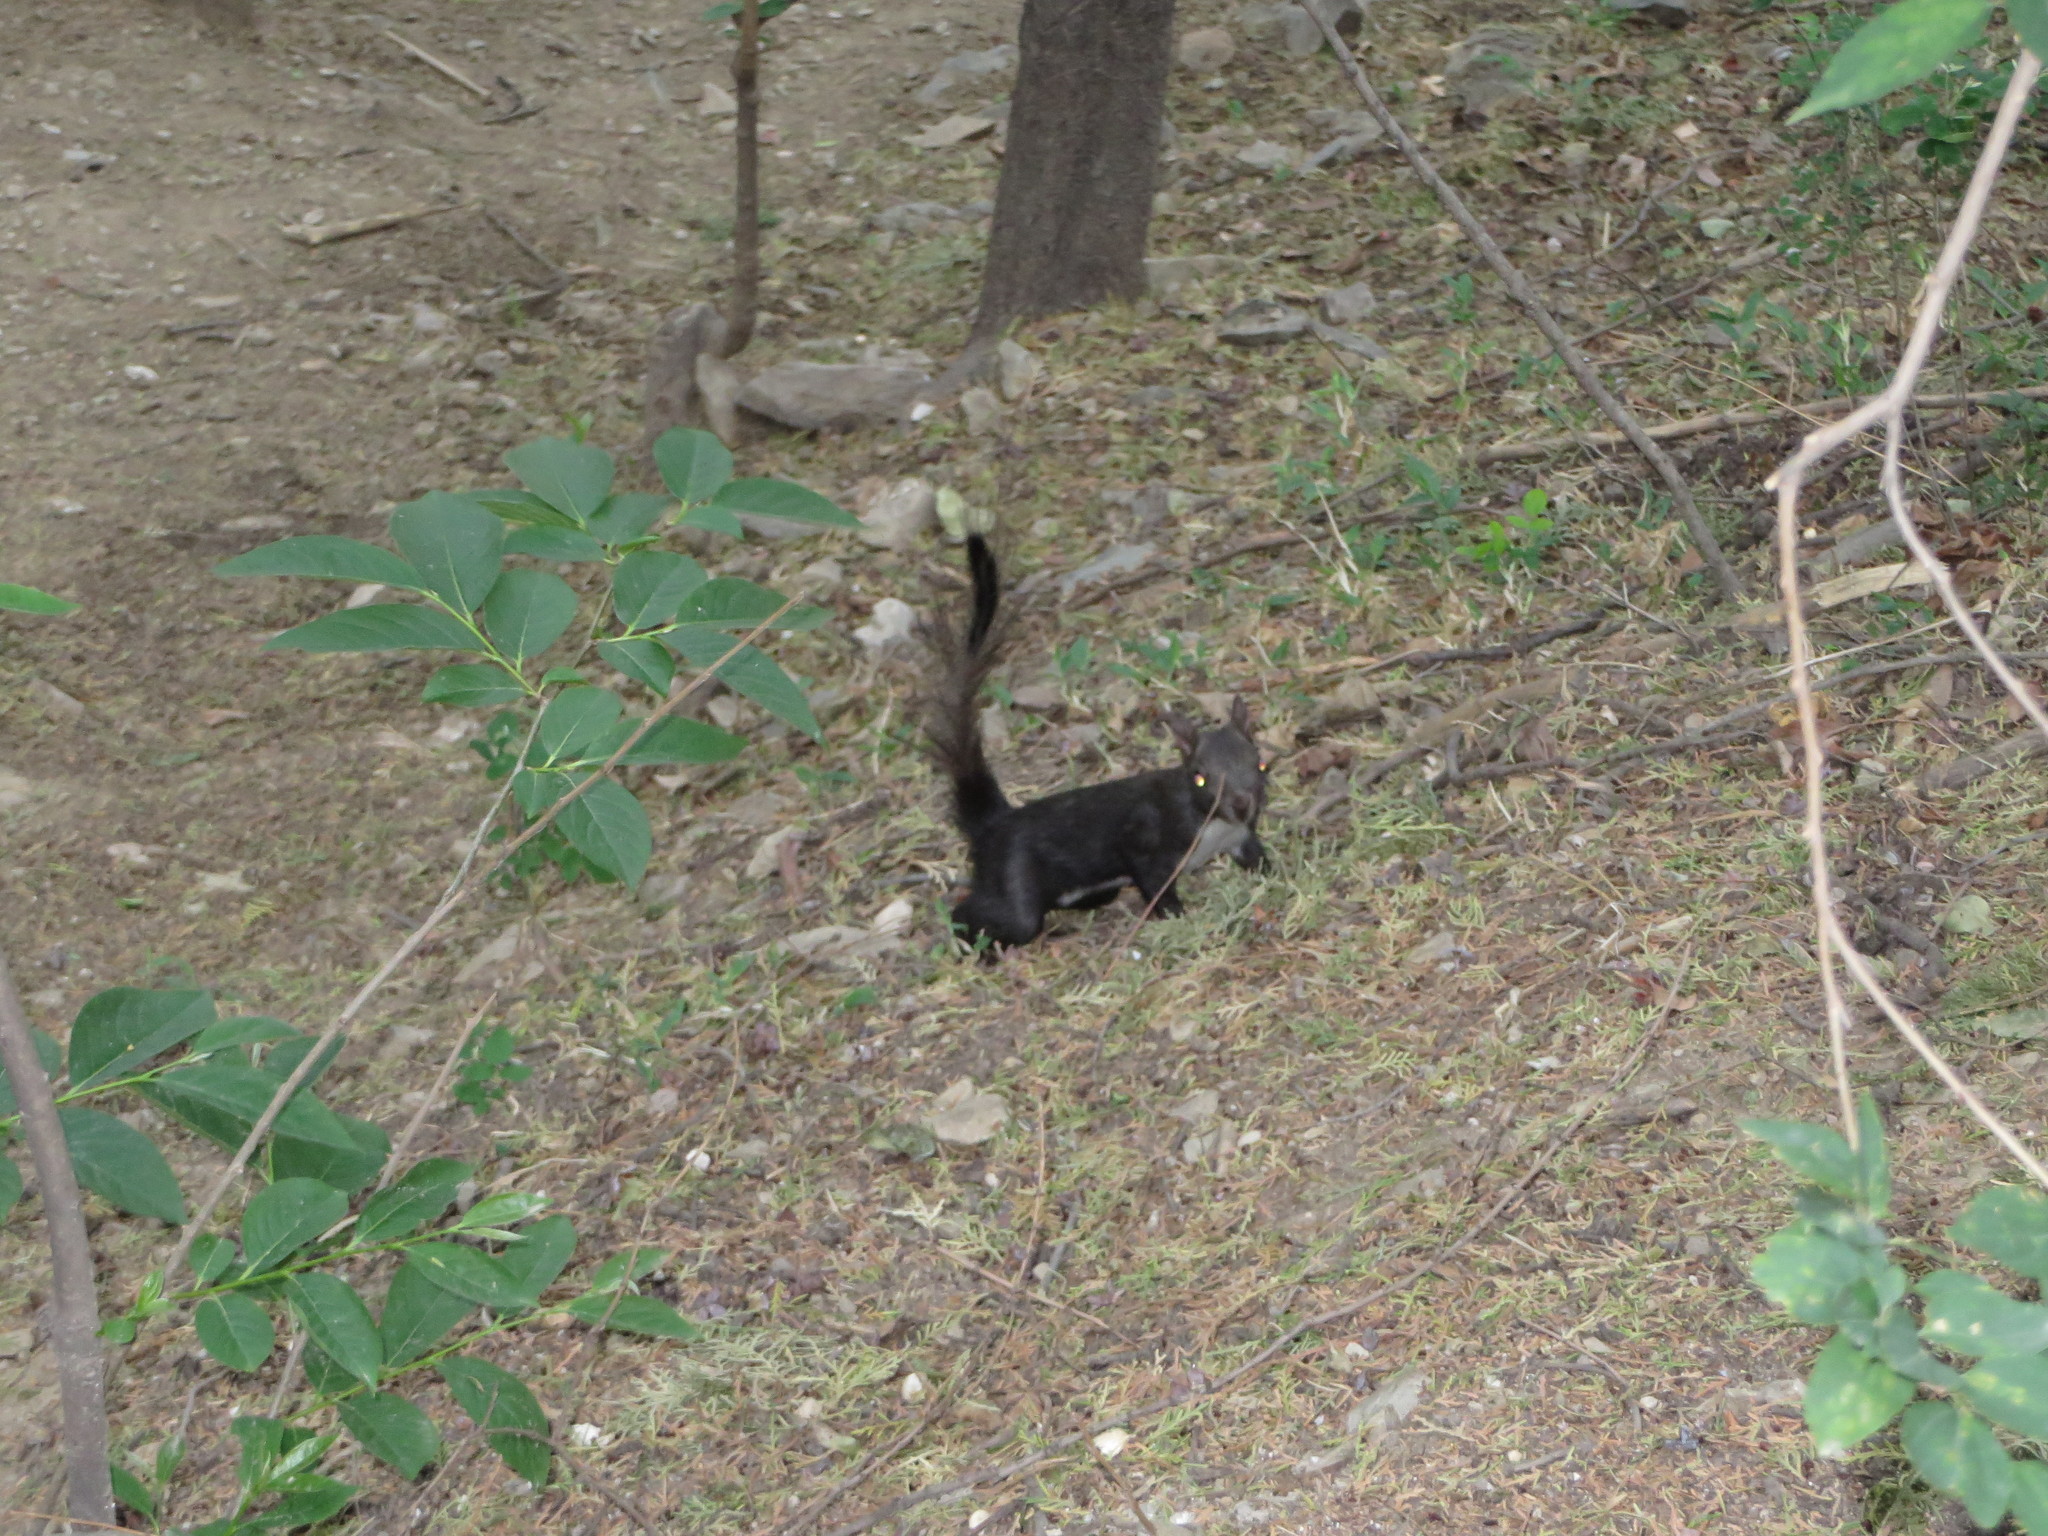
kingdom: Animalia
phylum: Chordata
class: Mammalia
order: Rodentia
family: Sciuridae
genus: Sciurus
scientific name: Sciurus vulgaris
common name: Eurasian red squirrel
